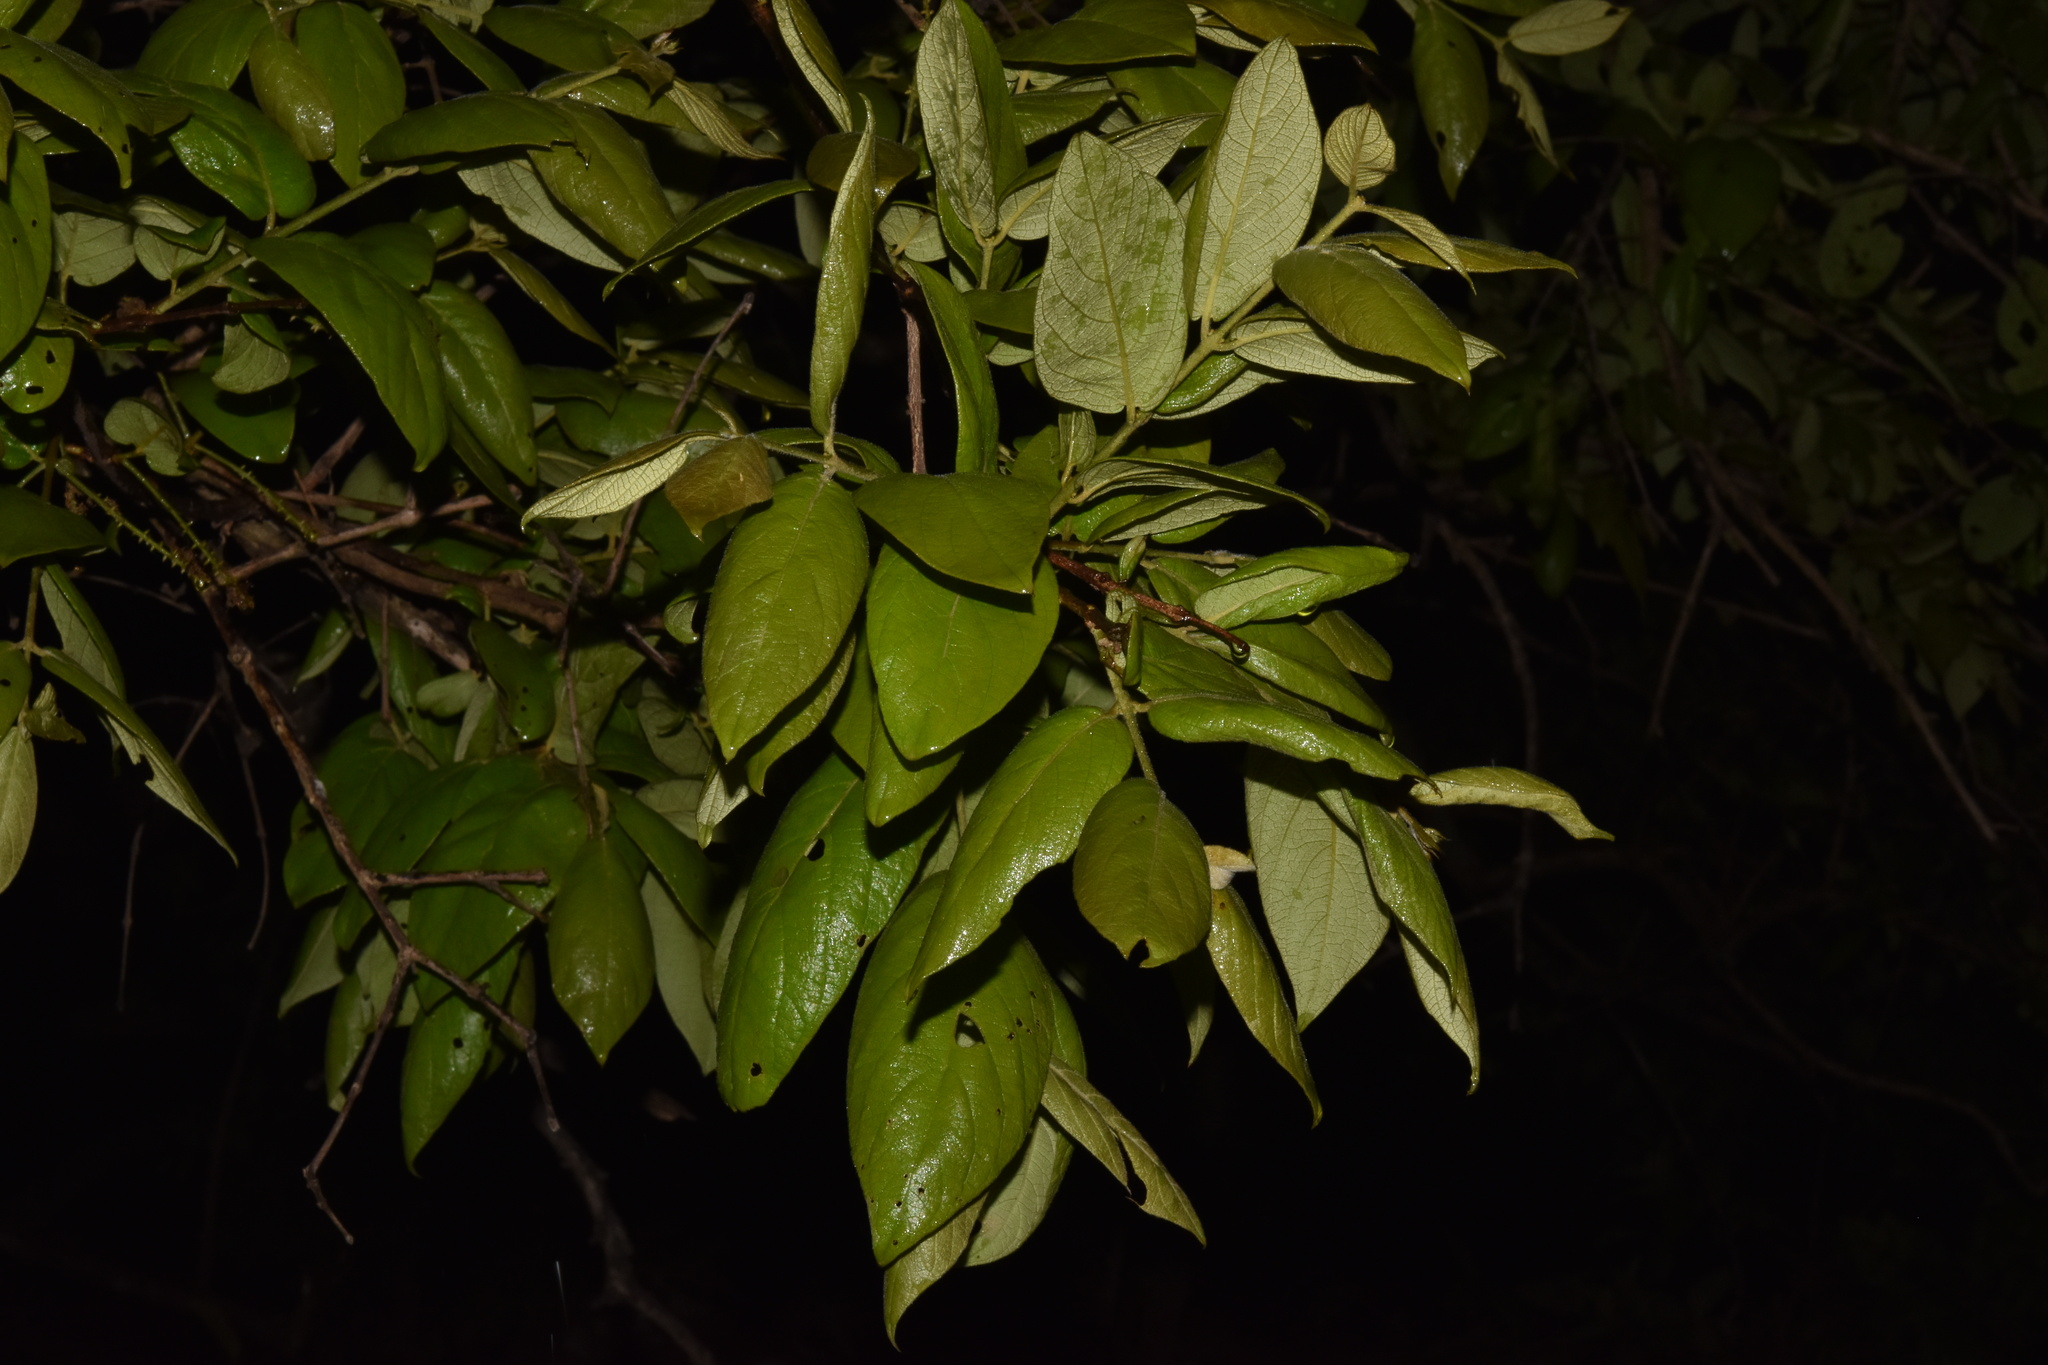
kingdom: Plantae
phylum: Tracheophyta
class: Magnoliopsida
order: Myrtales
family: Combretaceae
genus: Combretum
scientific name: Combretum molle
